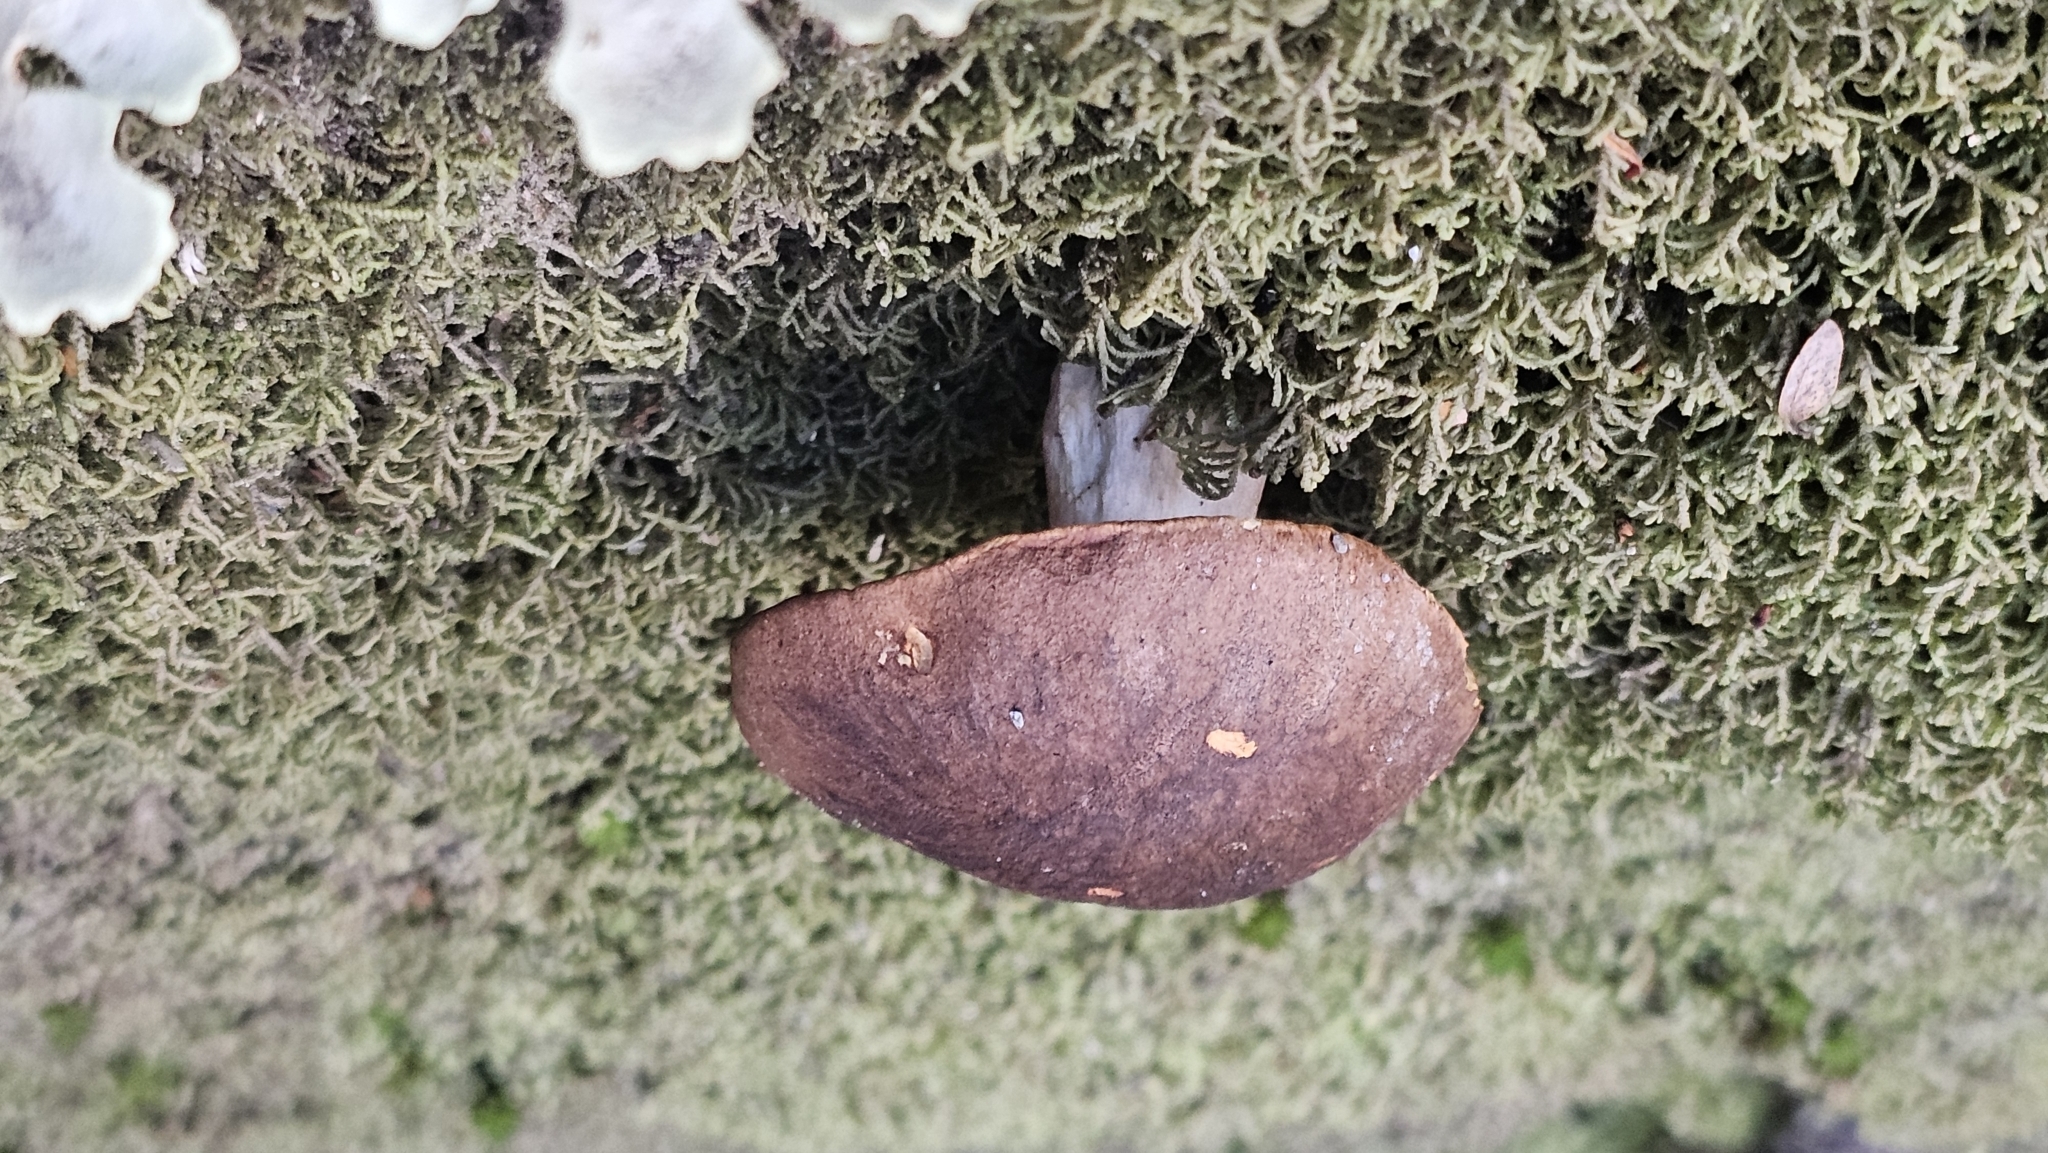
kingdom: Fungi
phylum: Basidiomycota
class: Agaricomycetes
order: Boletales
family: Boletaceae
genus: Xerocomus
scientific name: Xerocomus nothofagi
